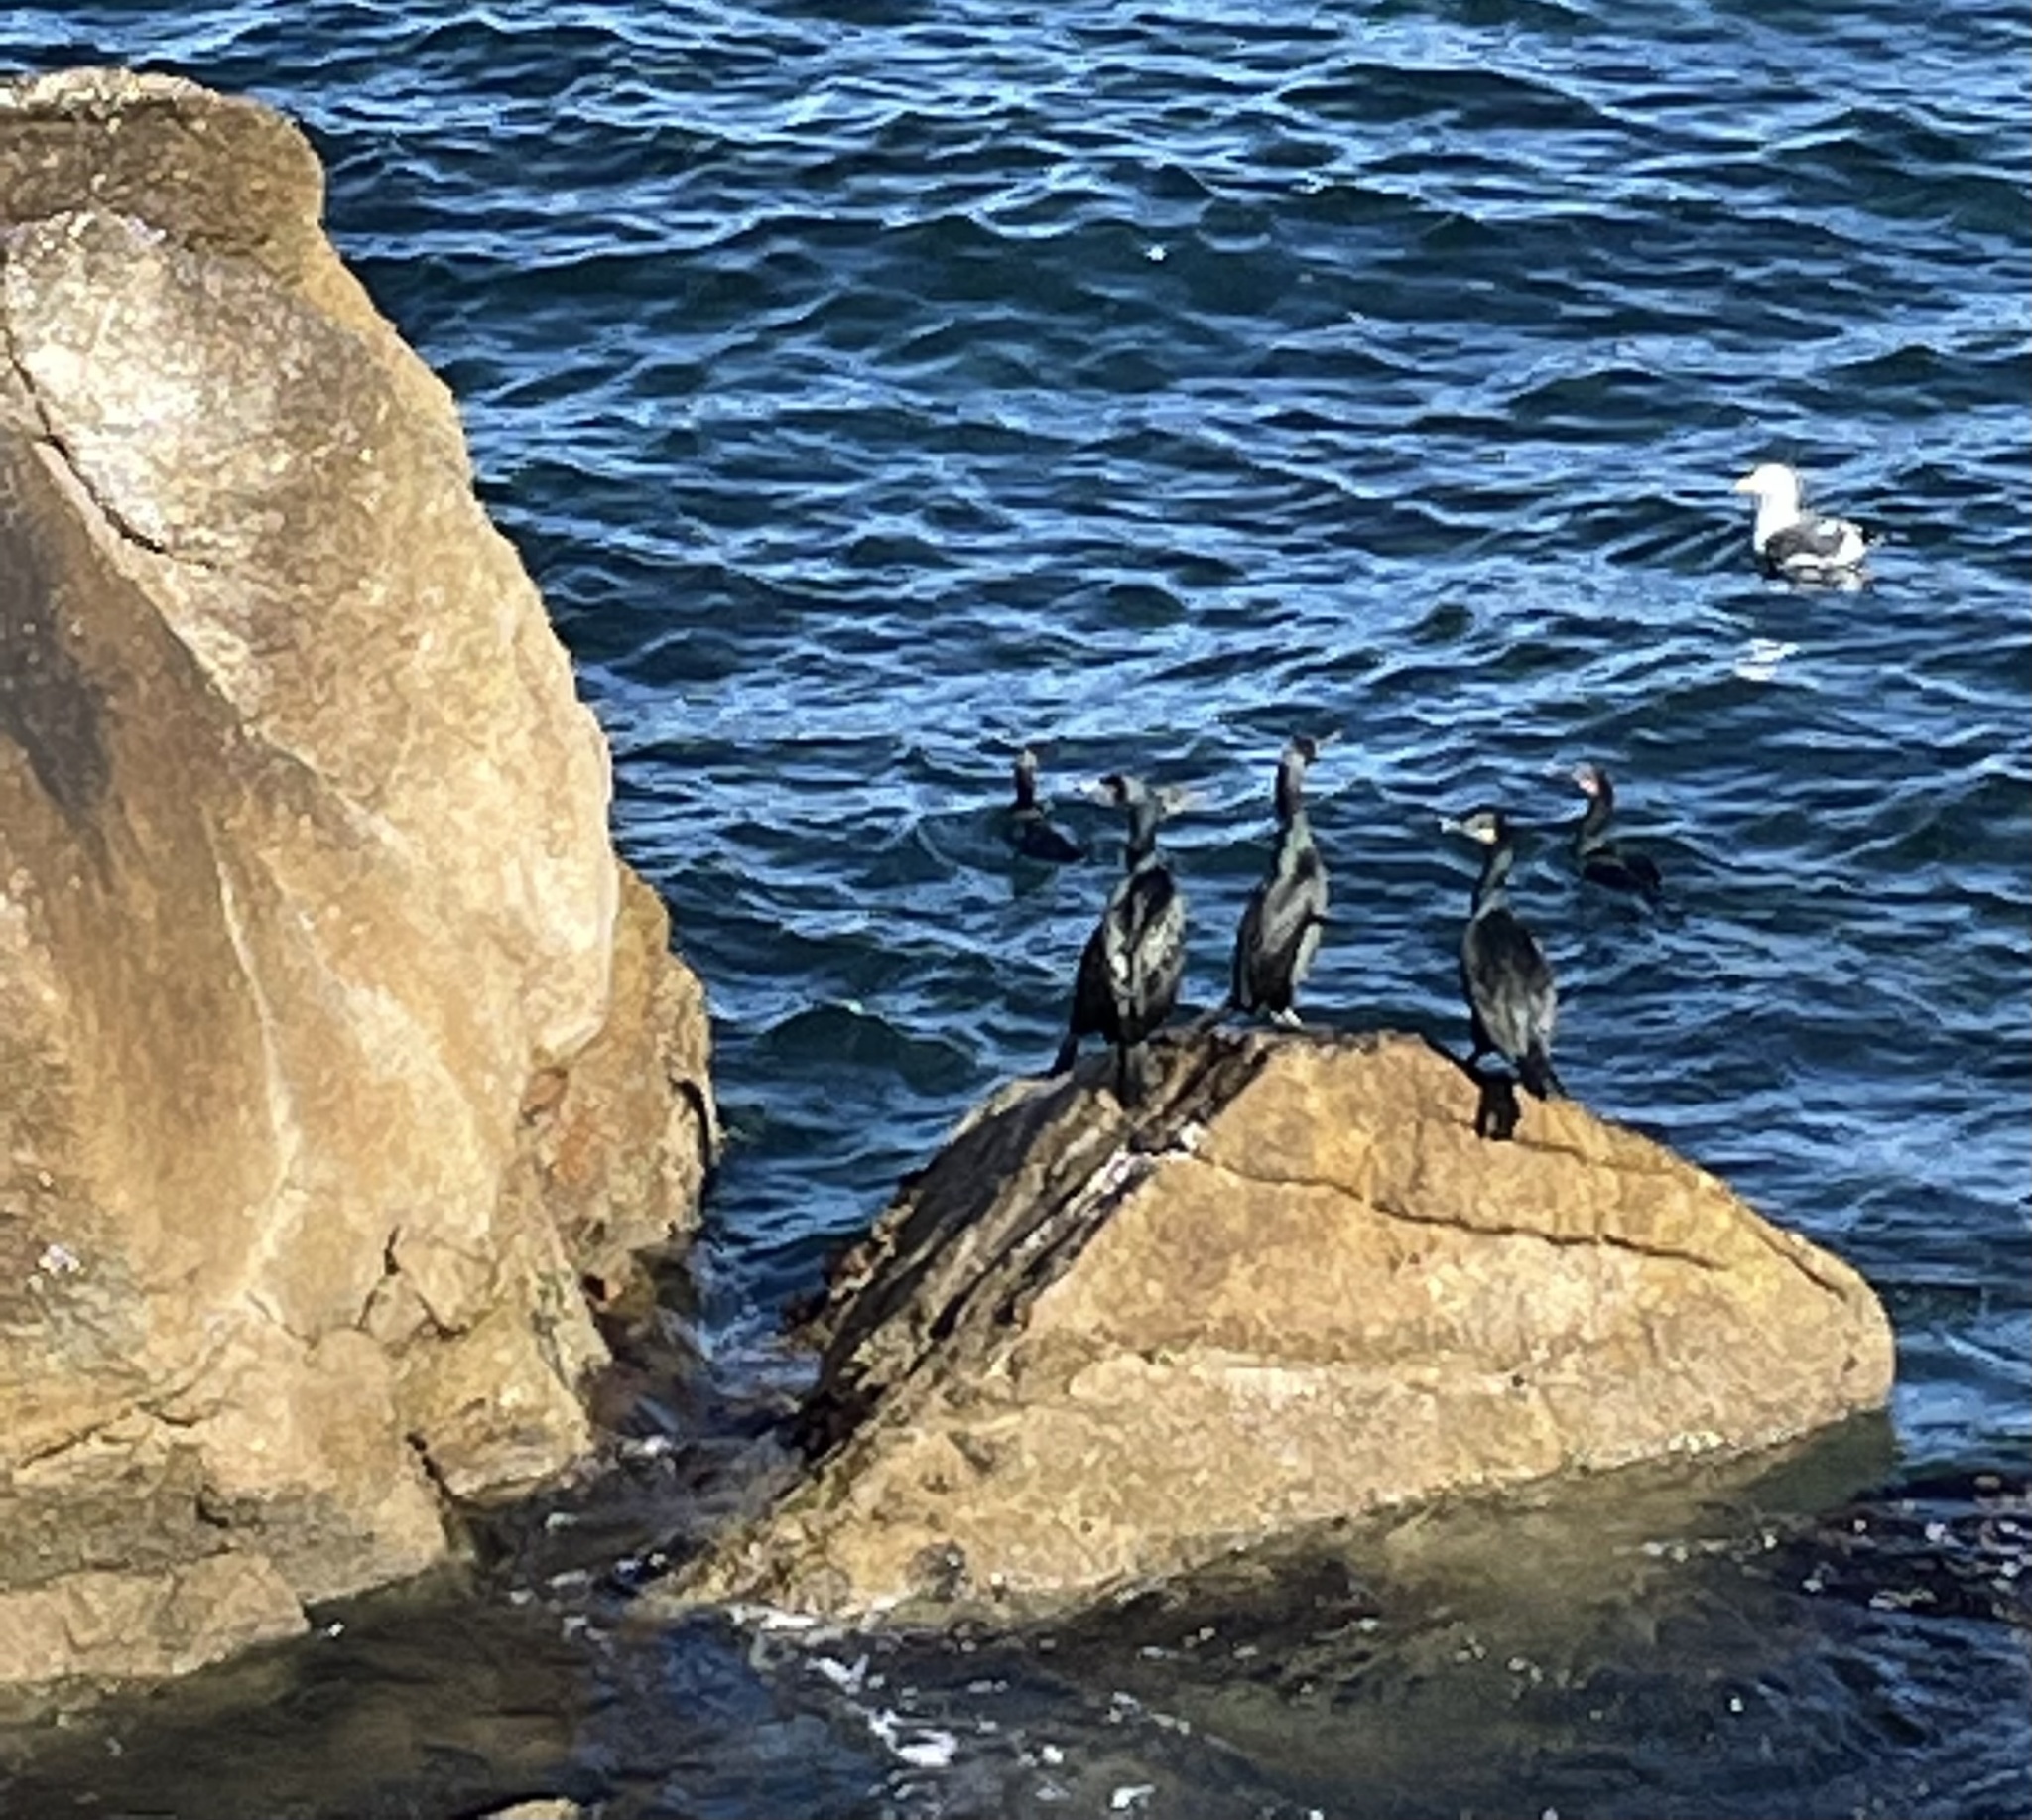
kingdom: Animalia
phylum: Chordata
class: Aves
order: Suliformes
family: Phalacrocoracidae
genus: Urile
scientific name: Urile penicillatus
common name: Brandt's cormorant
